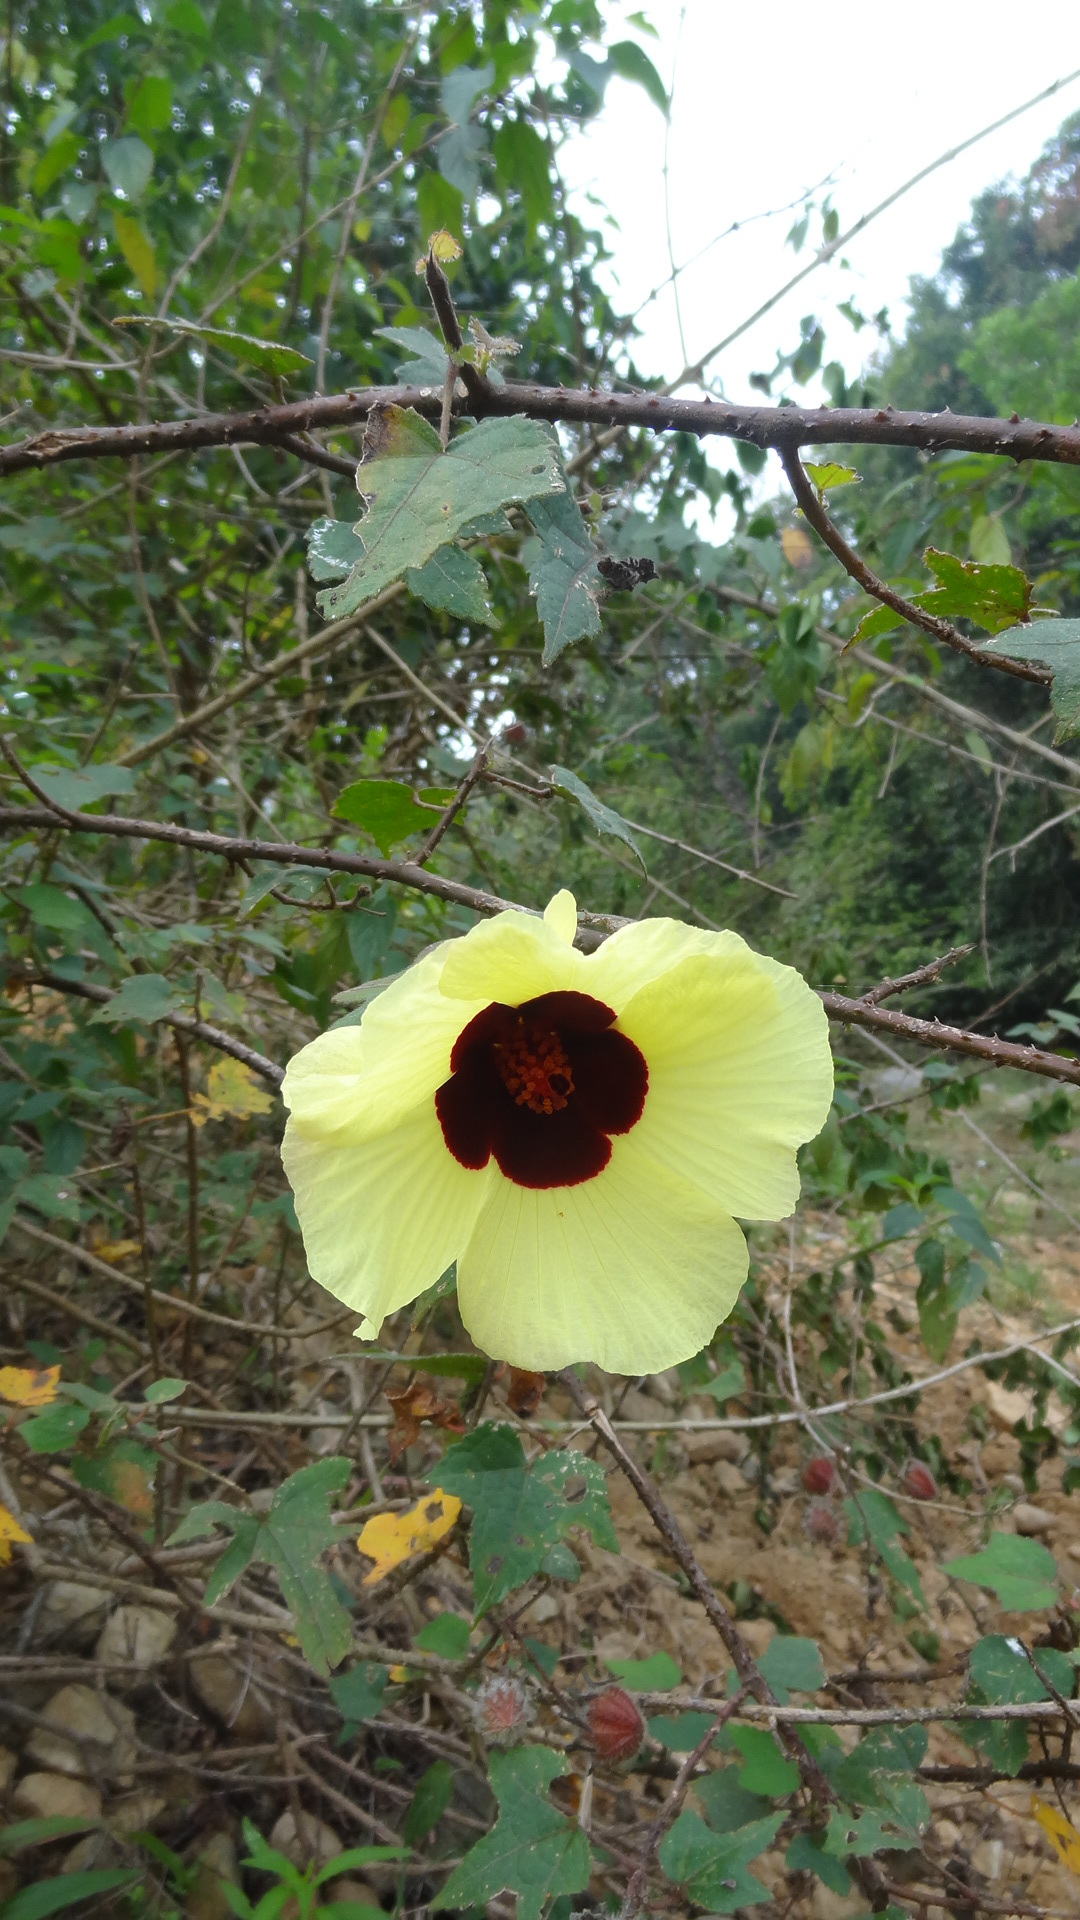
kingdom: Plantae
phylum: Tracheophyta
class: Magnoliopsida
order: Malvales
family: Malvaceae
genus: Hibiscus
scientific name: Hibiscus hispidissimus
